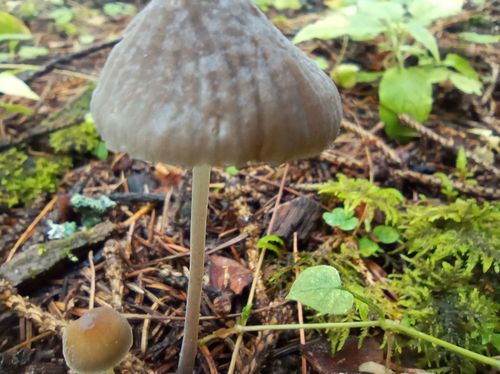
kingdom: Fungi
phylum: Basidiomycota
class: Agaricomycetes
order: Agaricales
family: Mycenaceae
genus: Mycena
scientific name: Mycena viridimarginata
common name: Olive edge bonnet
